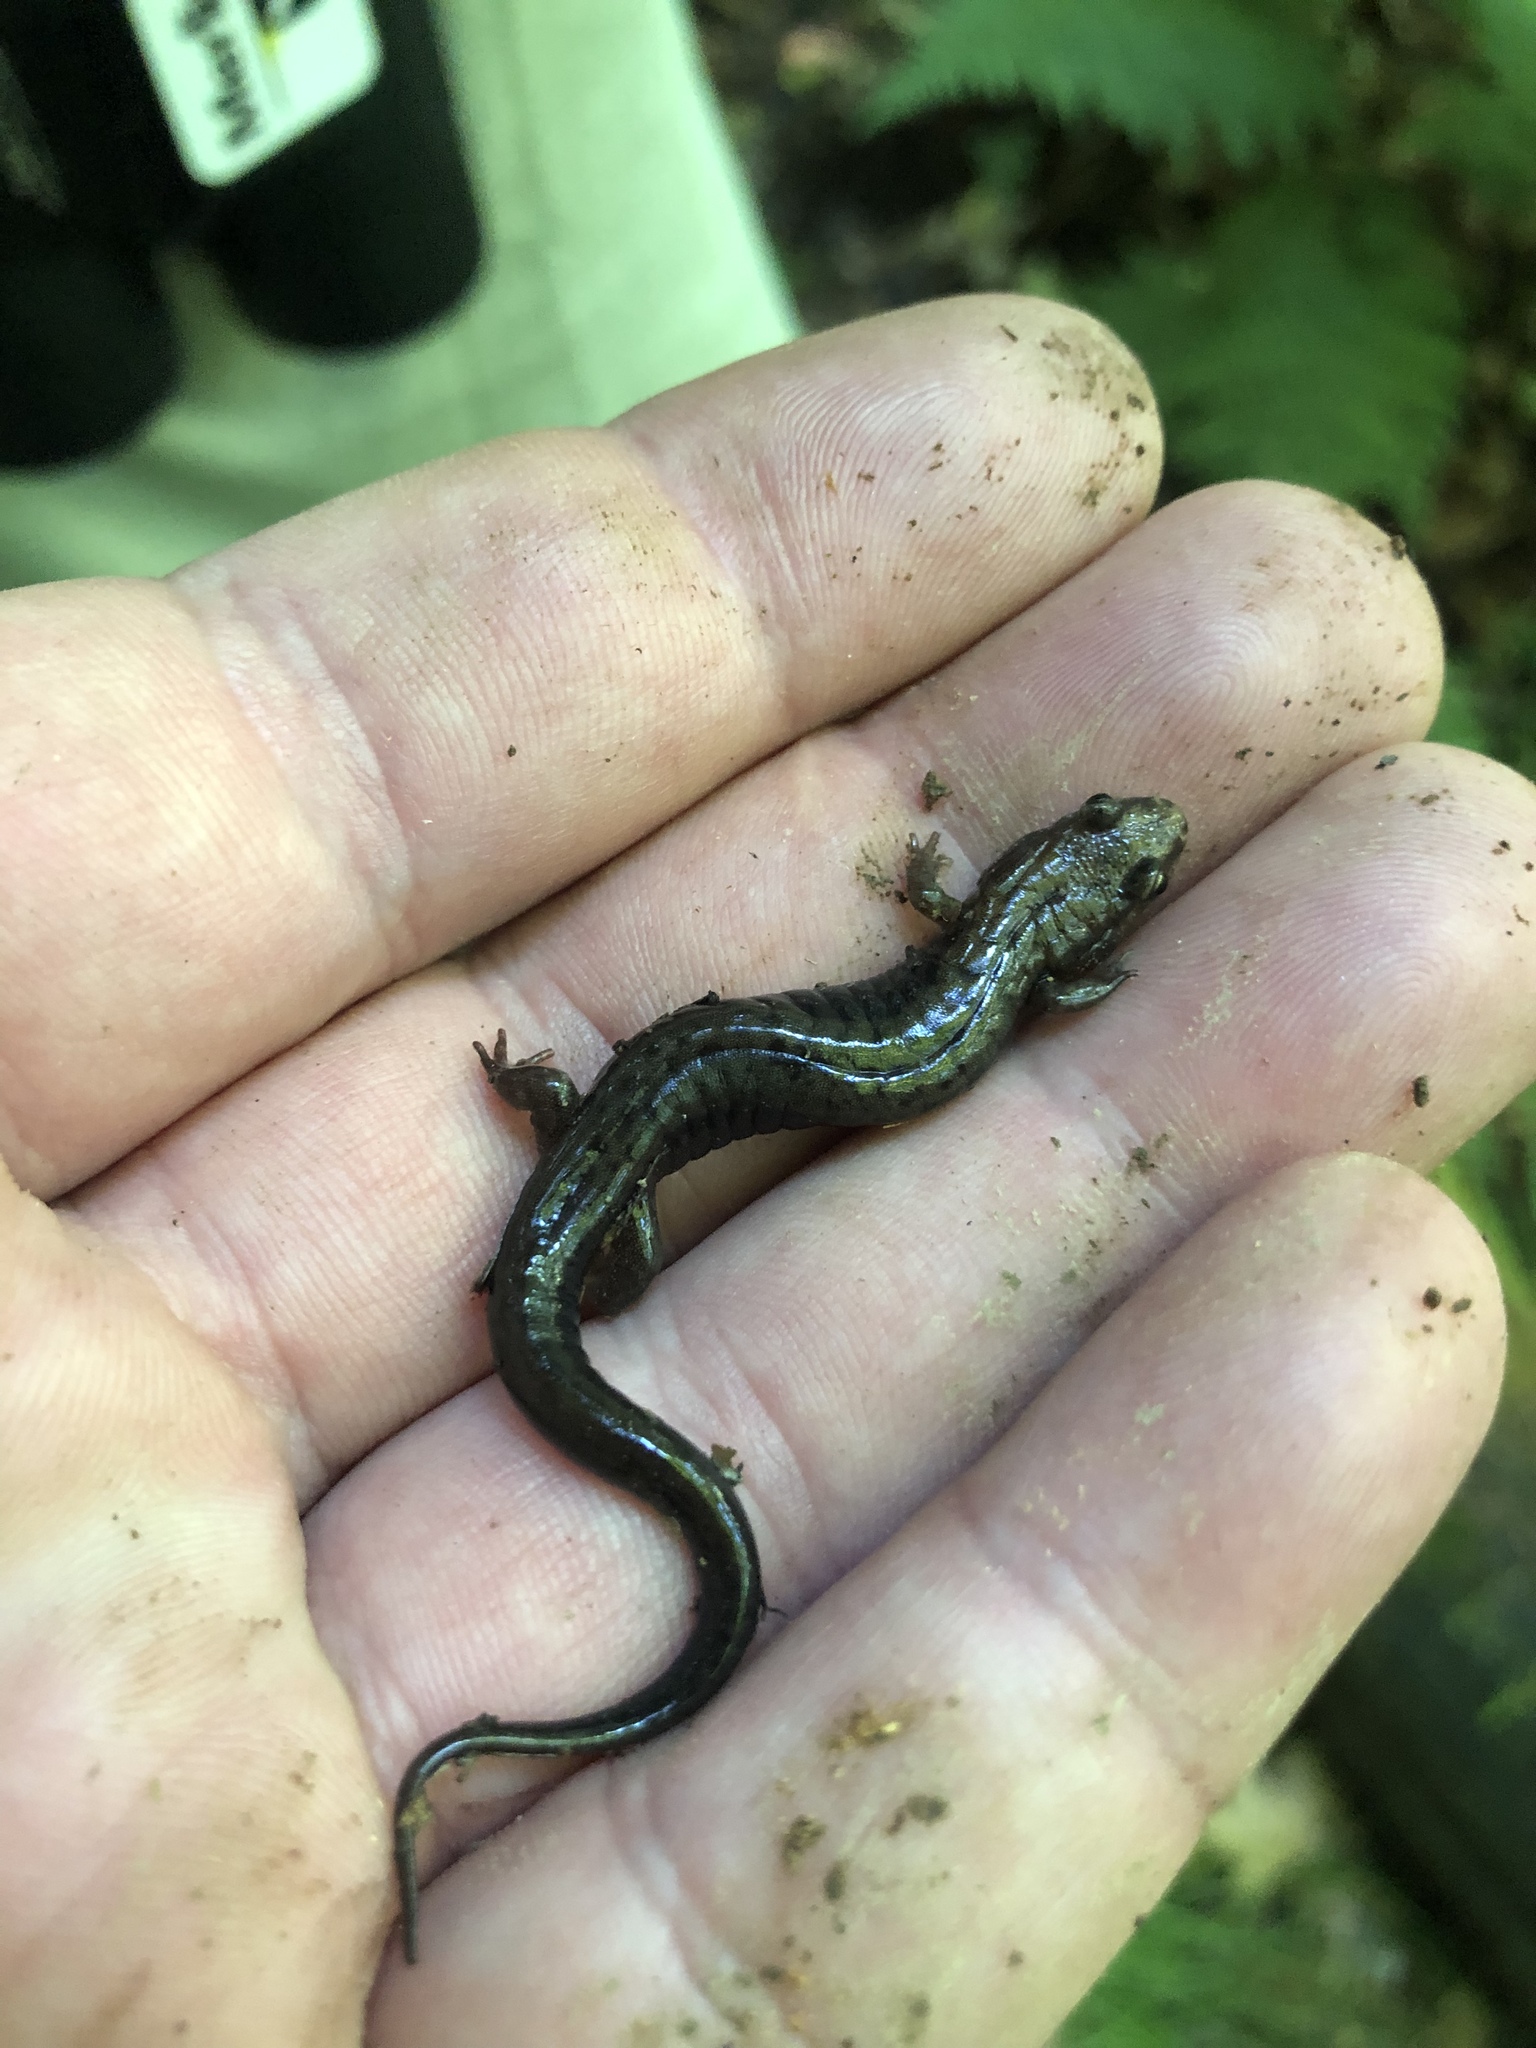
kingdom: Animalia
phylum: Chordata
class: Amphibia
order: Caudata
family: Plethodontidae
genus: Desmognathus
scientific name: Desmognathus ochrophaeus
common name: Allegheny mountain dusky salamander
